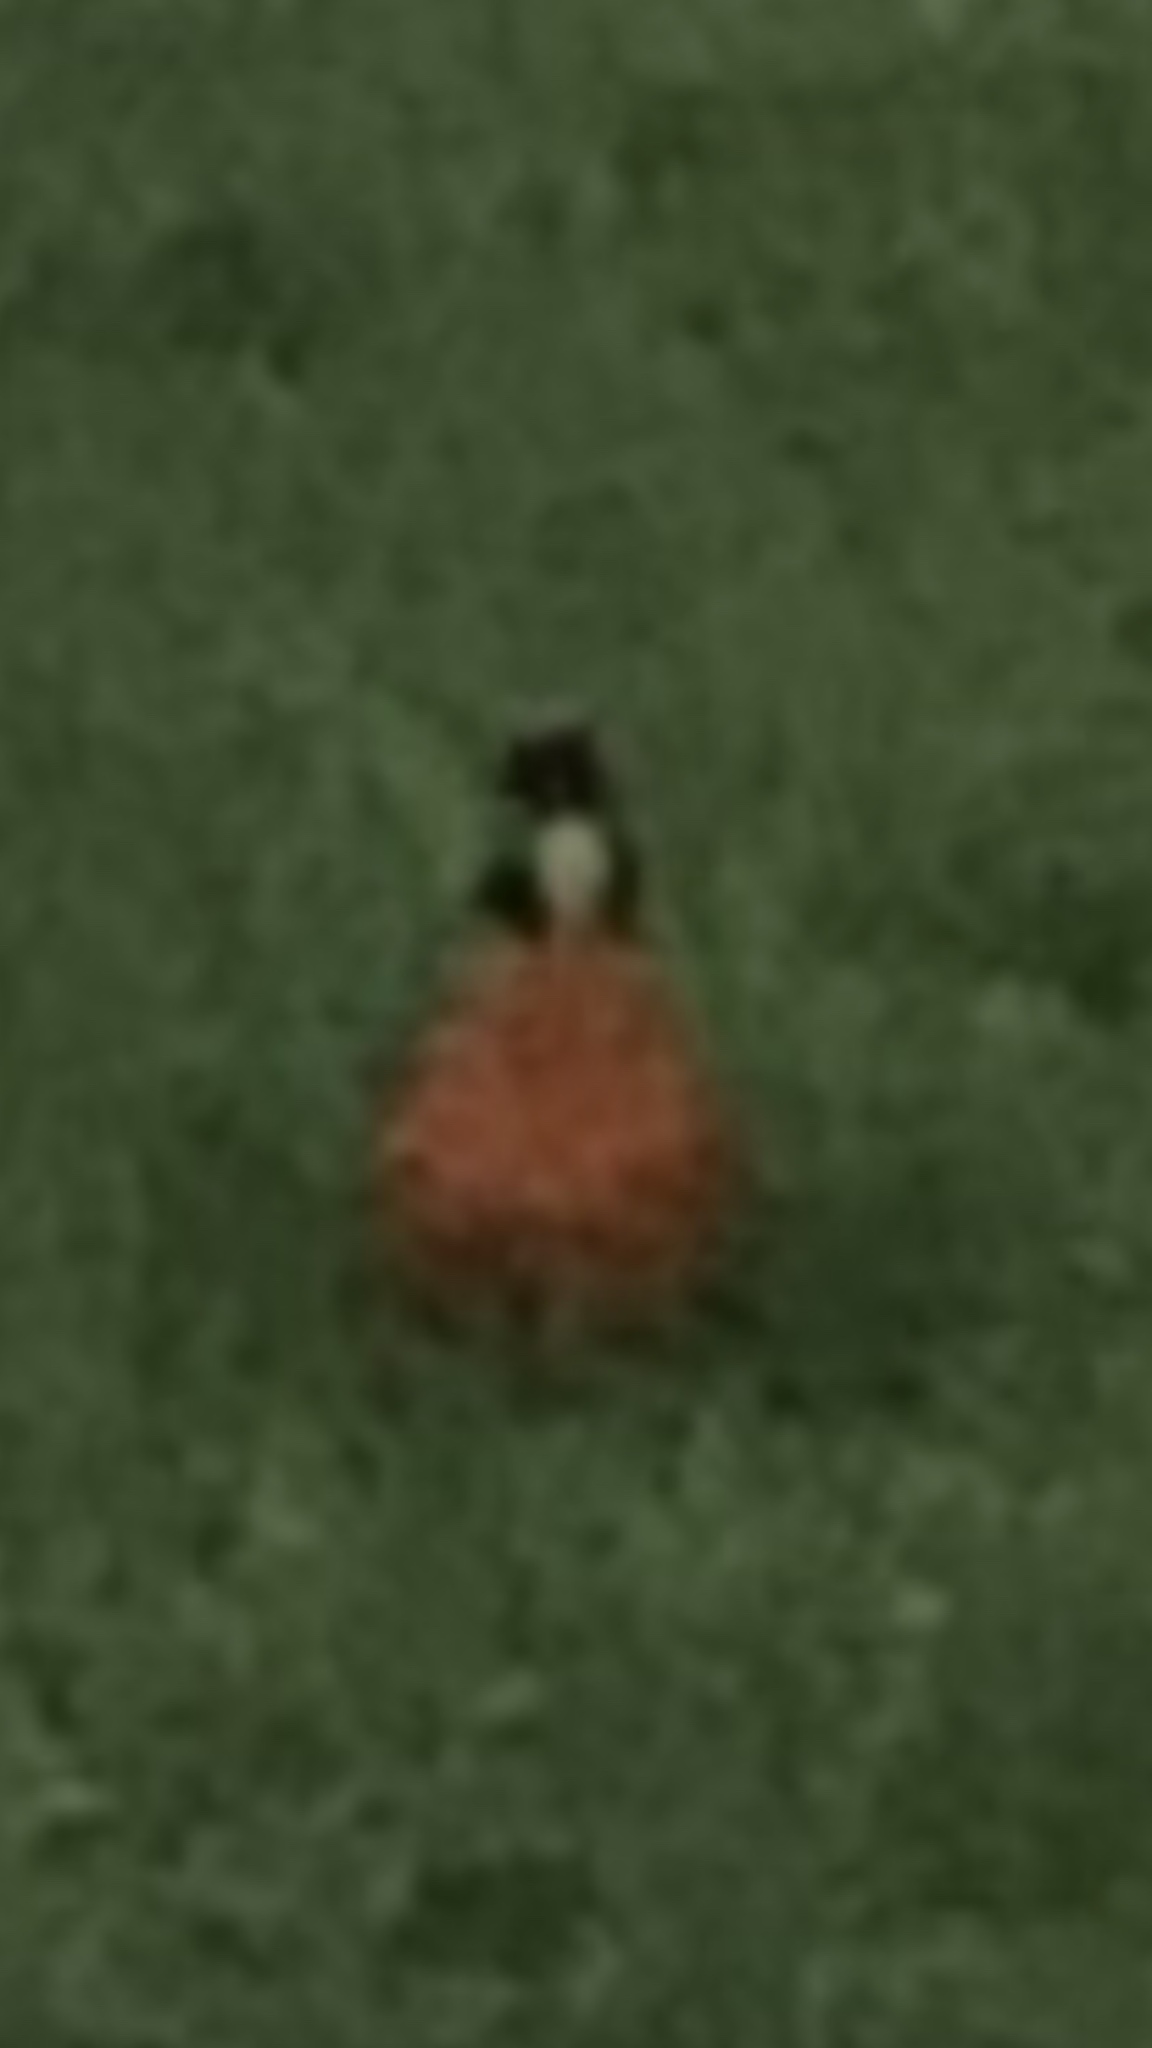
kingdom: Animalia
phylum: Chordata
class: Aves
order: Passeriformes
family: Turdidae
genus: Turdus
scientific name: Turdus migratorius
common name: American robin
